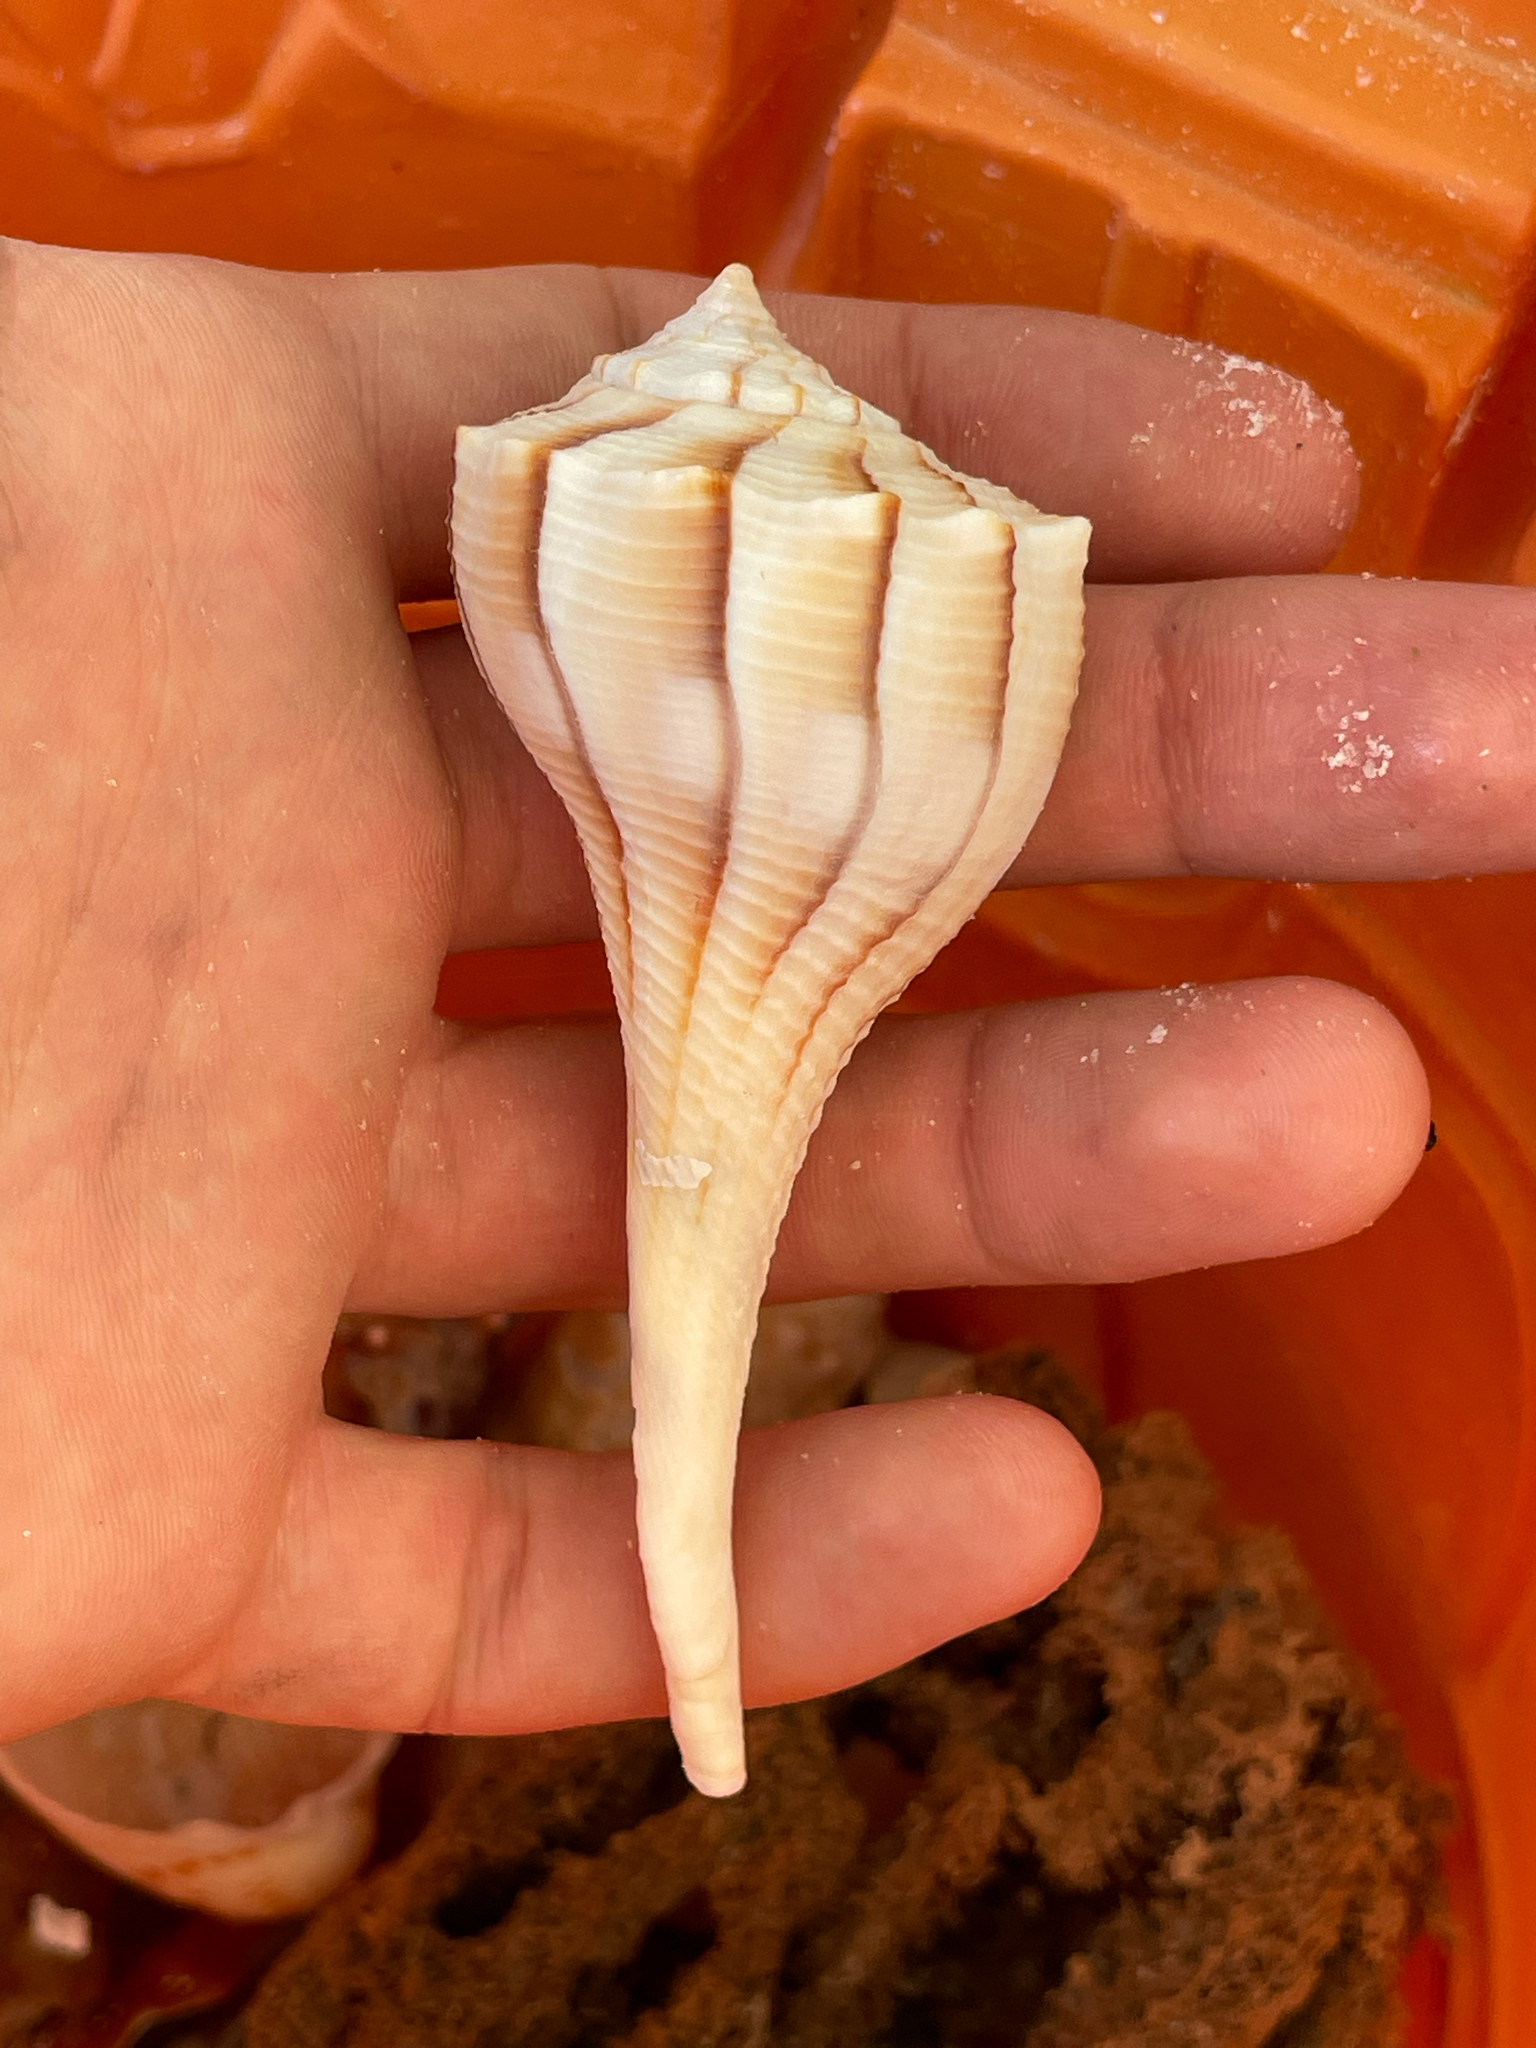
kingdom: Animalia
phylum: Mollusca
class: Gastropoda
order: Neogastropoda
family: Busyconidae
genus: Sinistrofulgur
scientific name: Sinistrofulgur sinistrum
